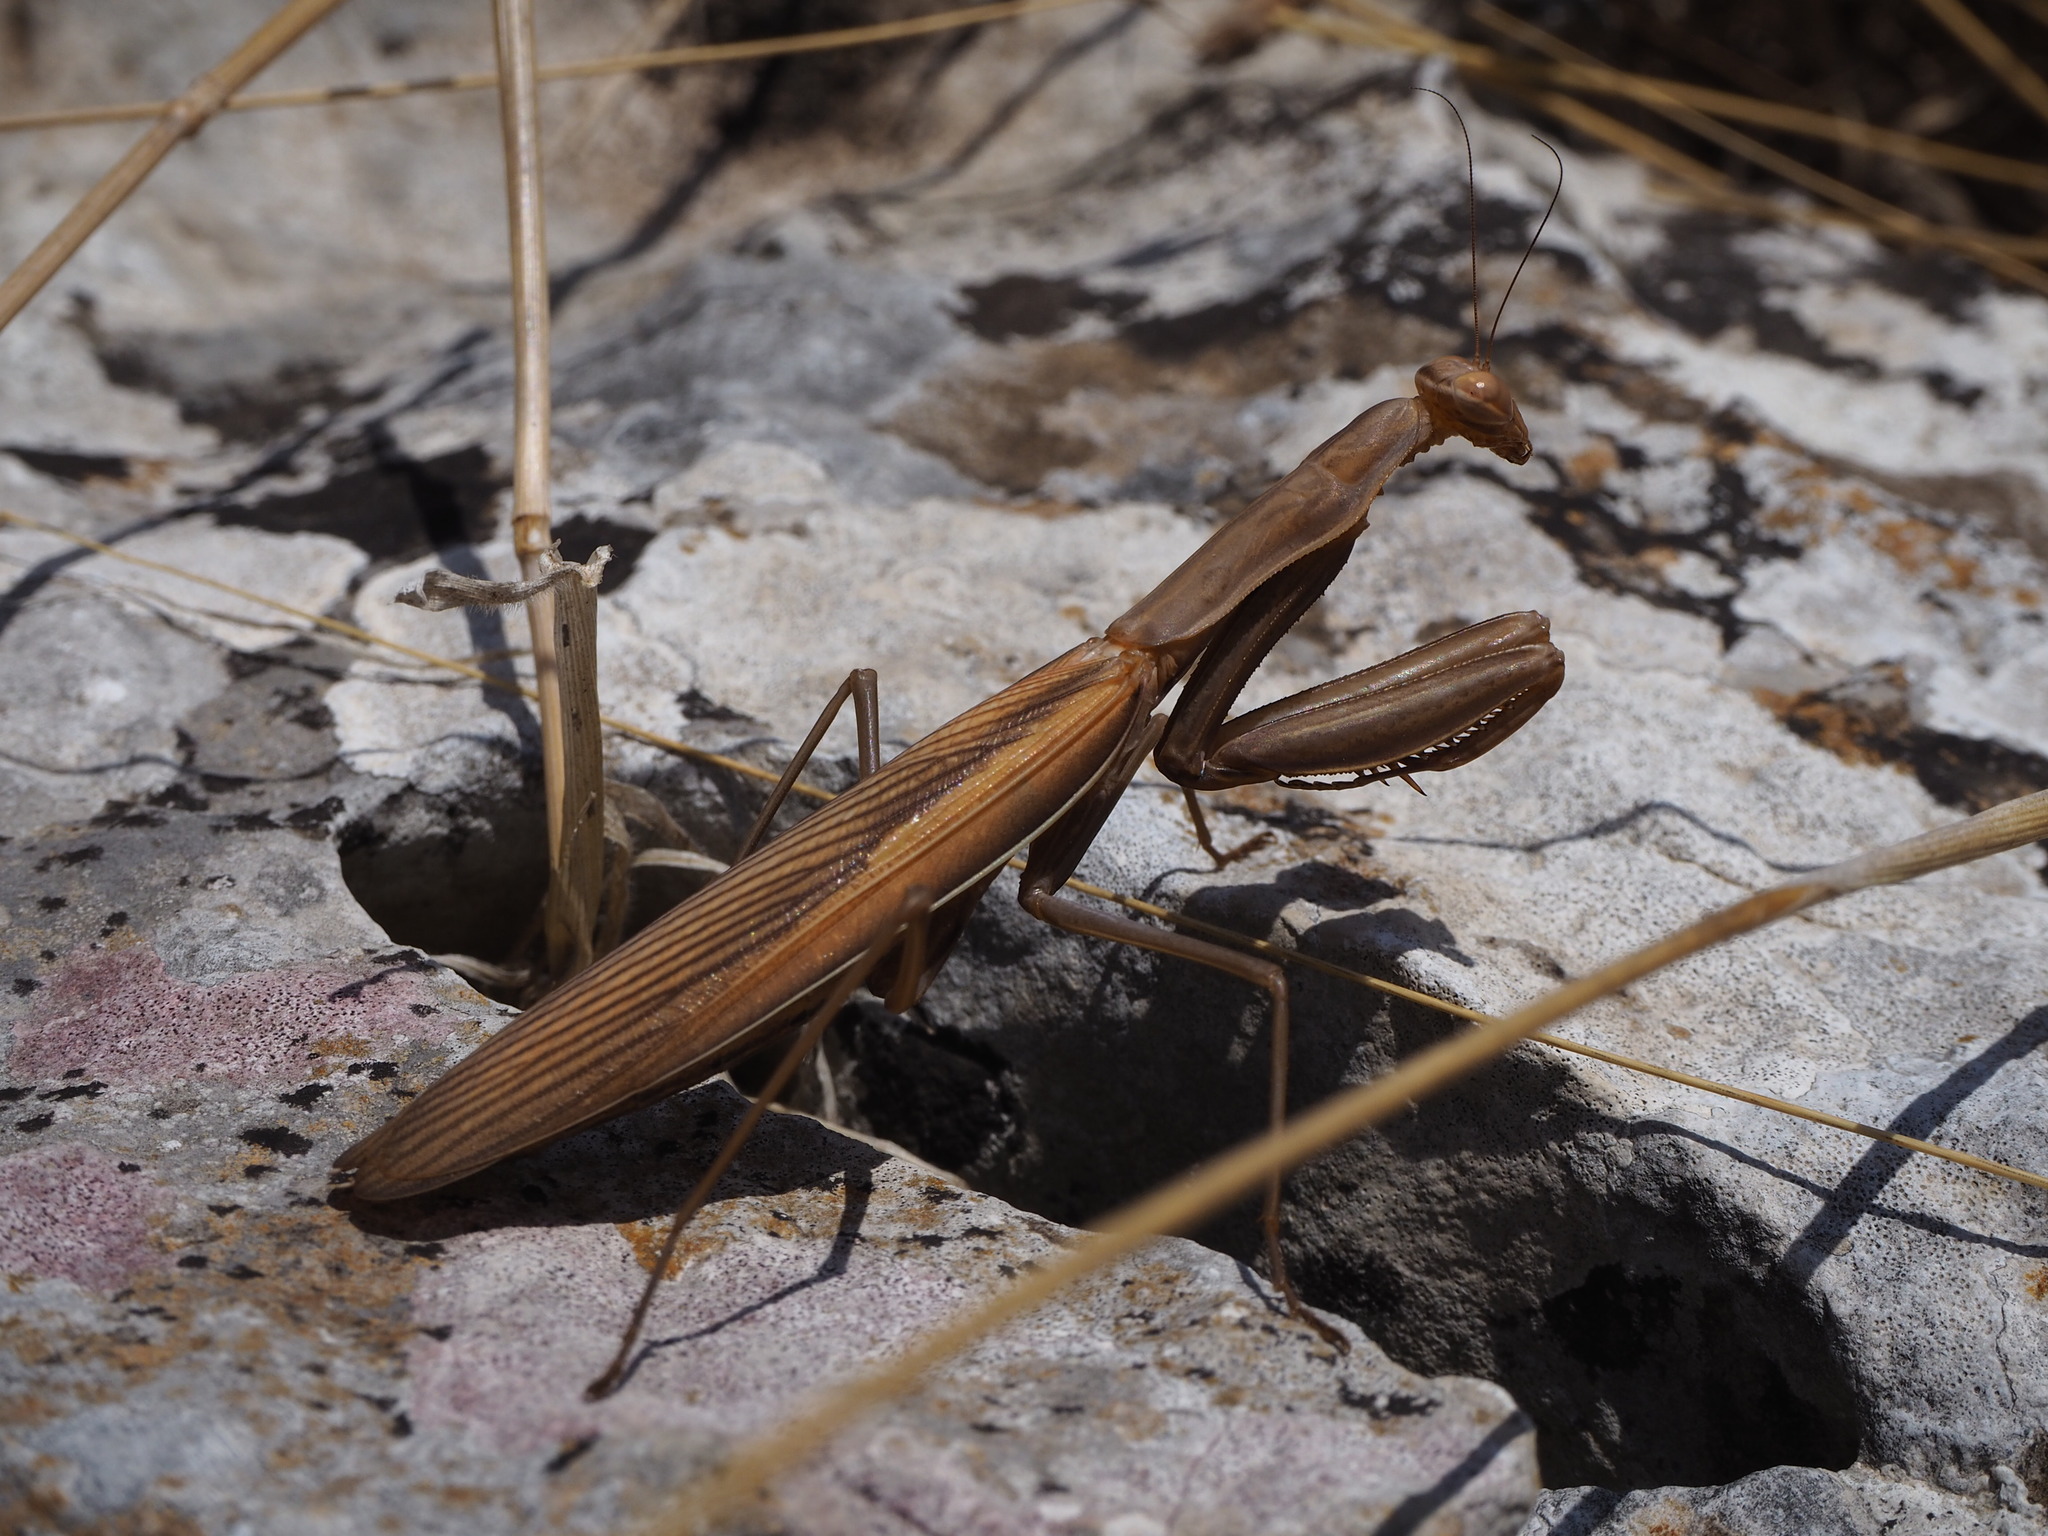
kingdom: Animalia
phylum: Arthropoda
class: Insecta
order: Mantodea
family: Mantidae
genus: Mantis
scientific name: Mantis religiosa
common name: Praying mantis
